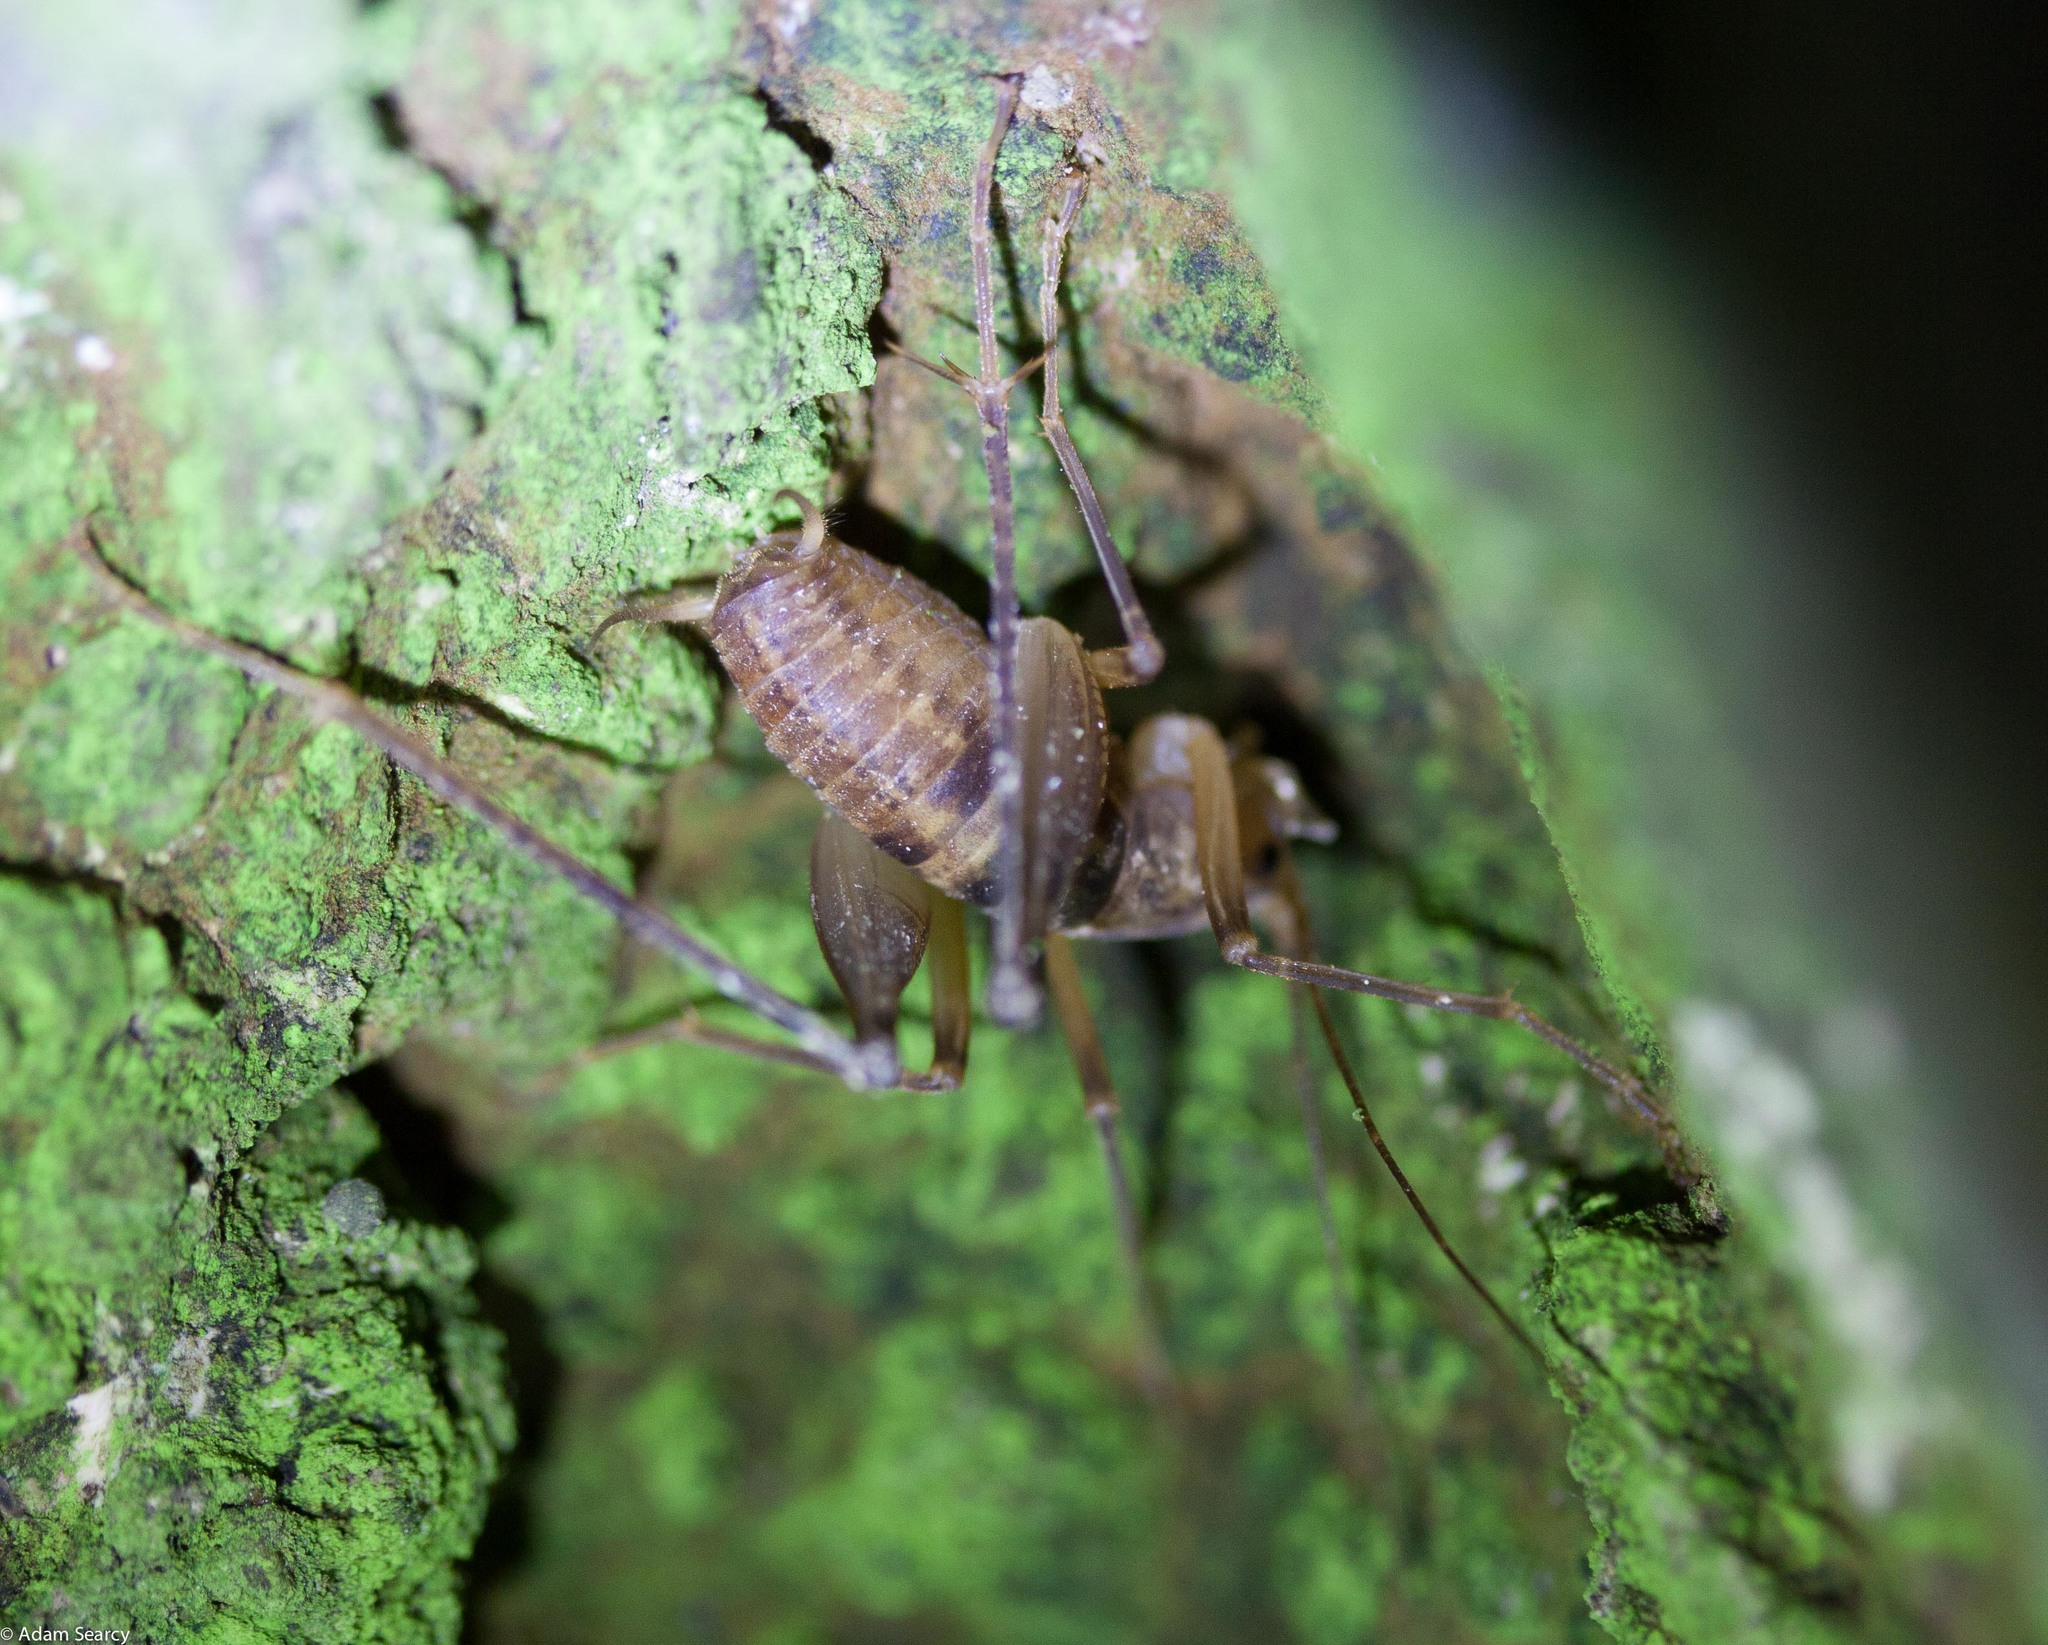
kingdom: Animalia
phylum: Arthropoda
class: Insecta
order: Orthoptera
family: Rhaphidophoridae
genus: Farallonophilus
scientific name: Farallonophilus cavernicolus
